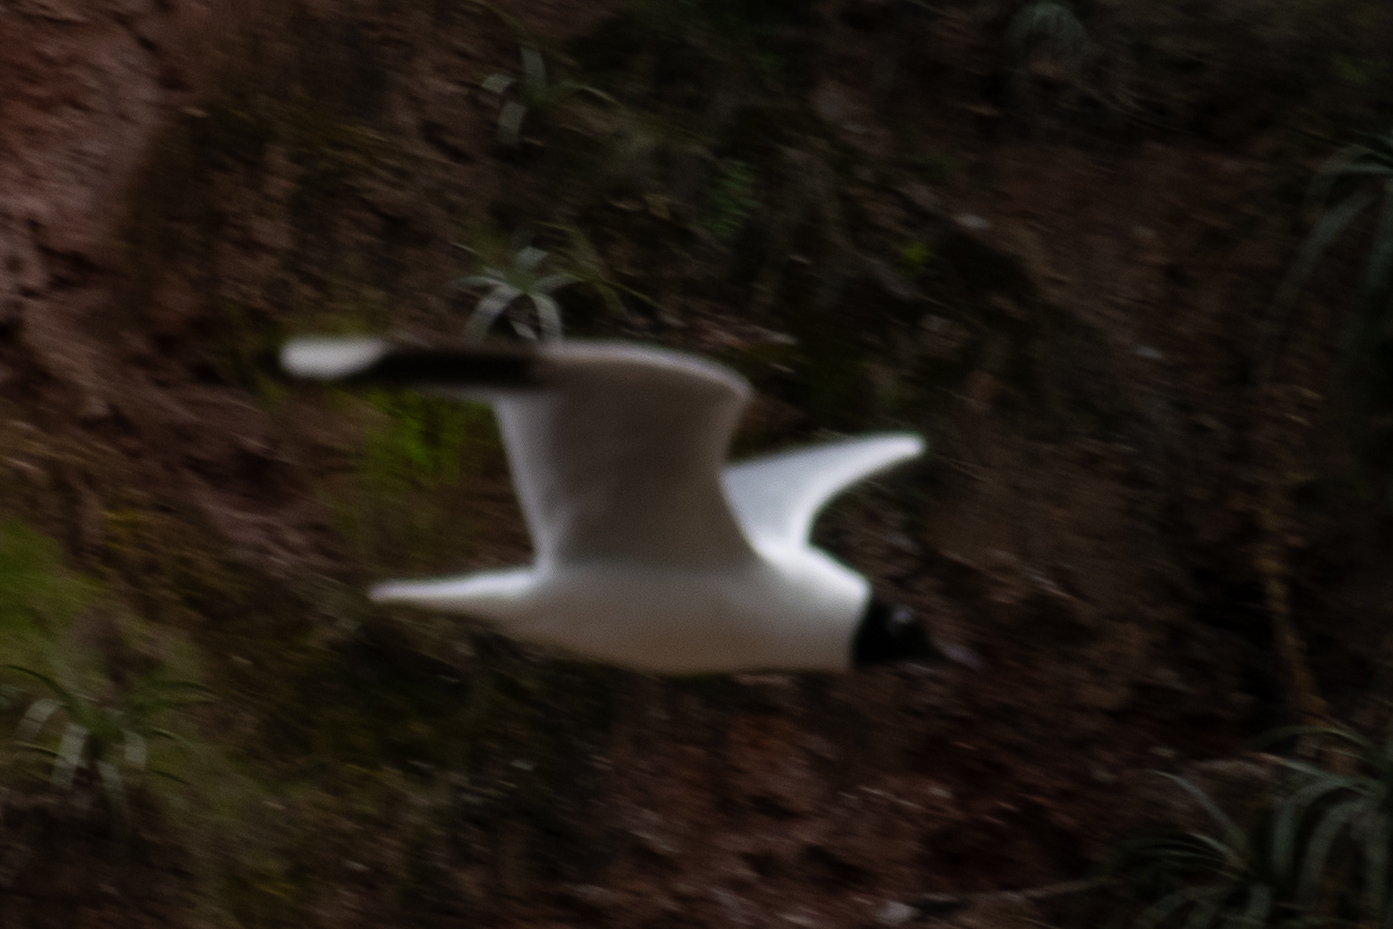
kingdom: Animalia
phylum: Chordata
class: Aves
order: Charadriiformes
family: Laridae
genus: Chroicocephalus
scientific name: Chroicocephalus serranus
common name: Andean gull
